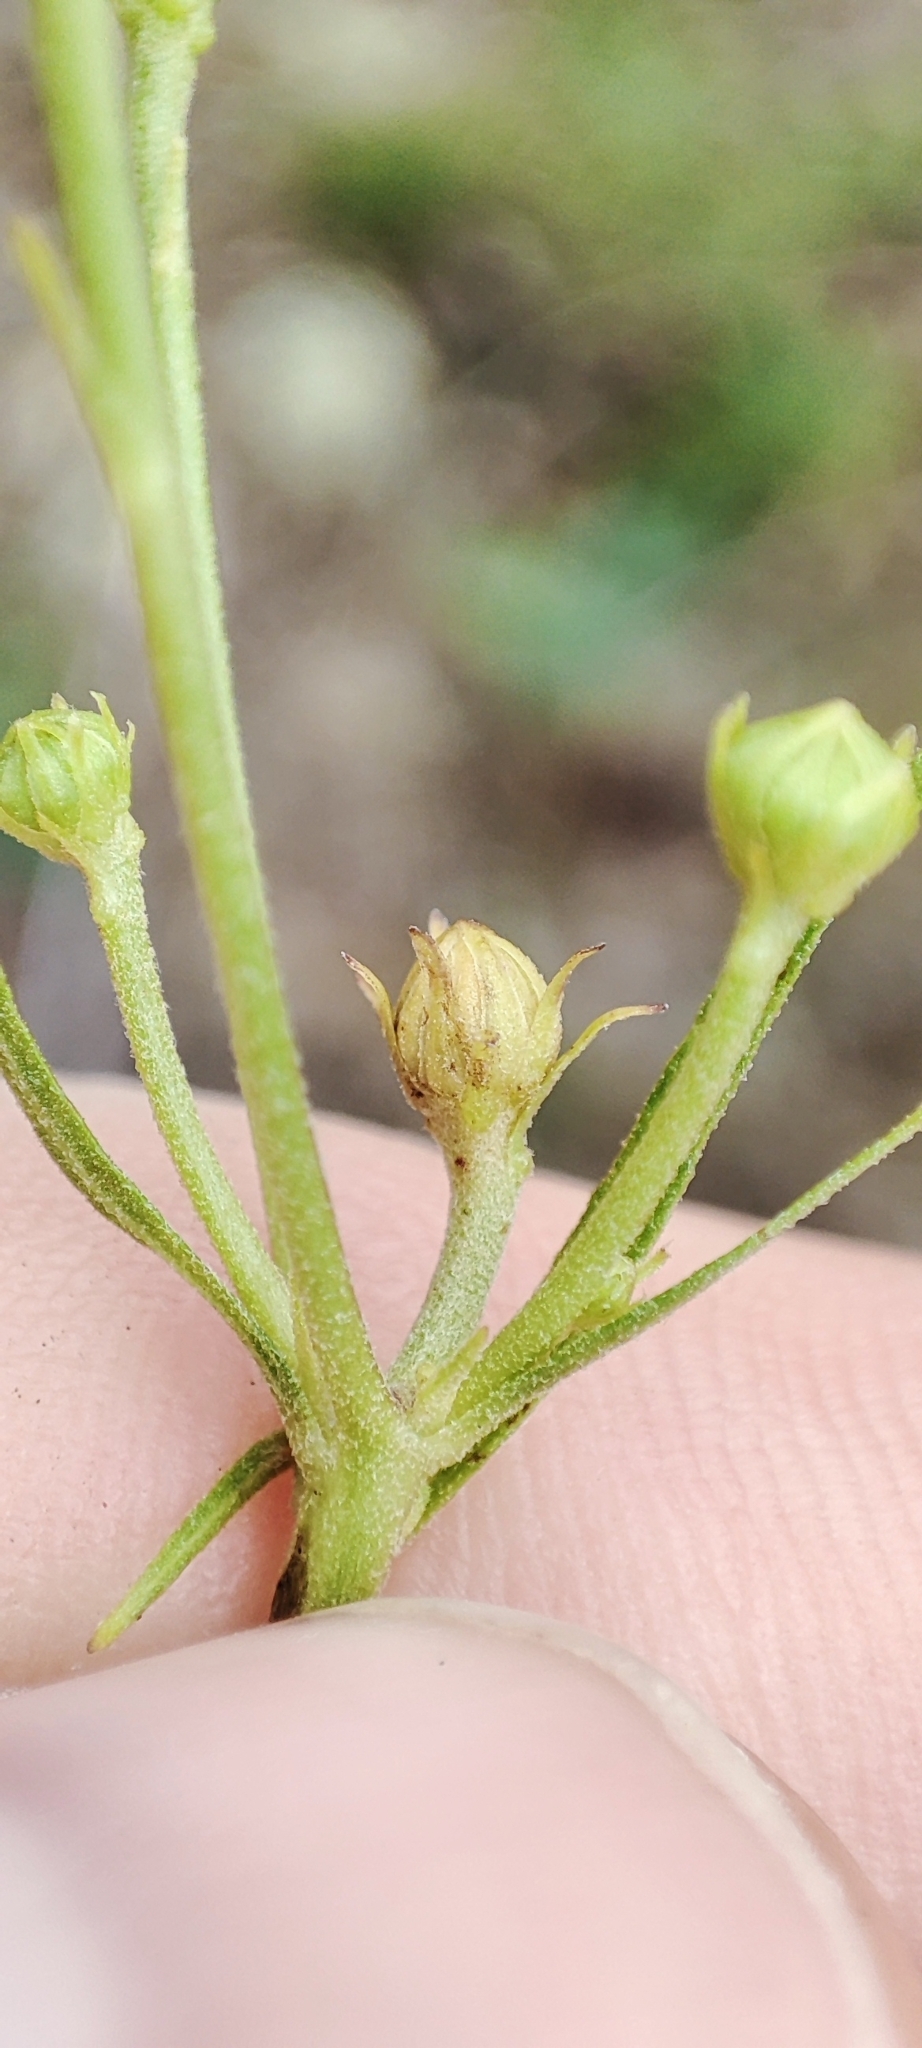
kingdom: Plantae
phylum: Tracheophyta
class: Magnoliopsida
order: Asterales
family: Asteraceae
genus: Hieracium
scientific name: Hieracium umbellatum
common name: Northern hawkweed
